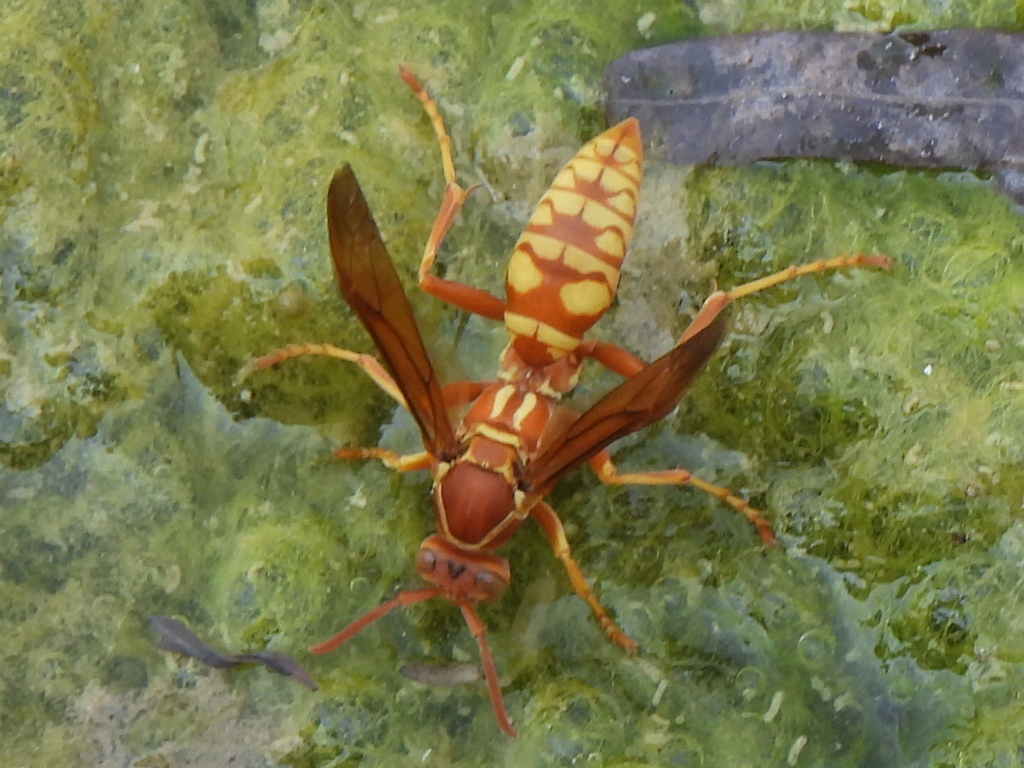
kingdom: Animalia
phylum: Arthropoda
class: Insecta
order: Hymenoptera
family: Eumenidae
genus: Polistes
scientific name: Polistes apachus
